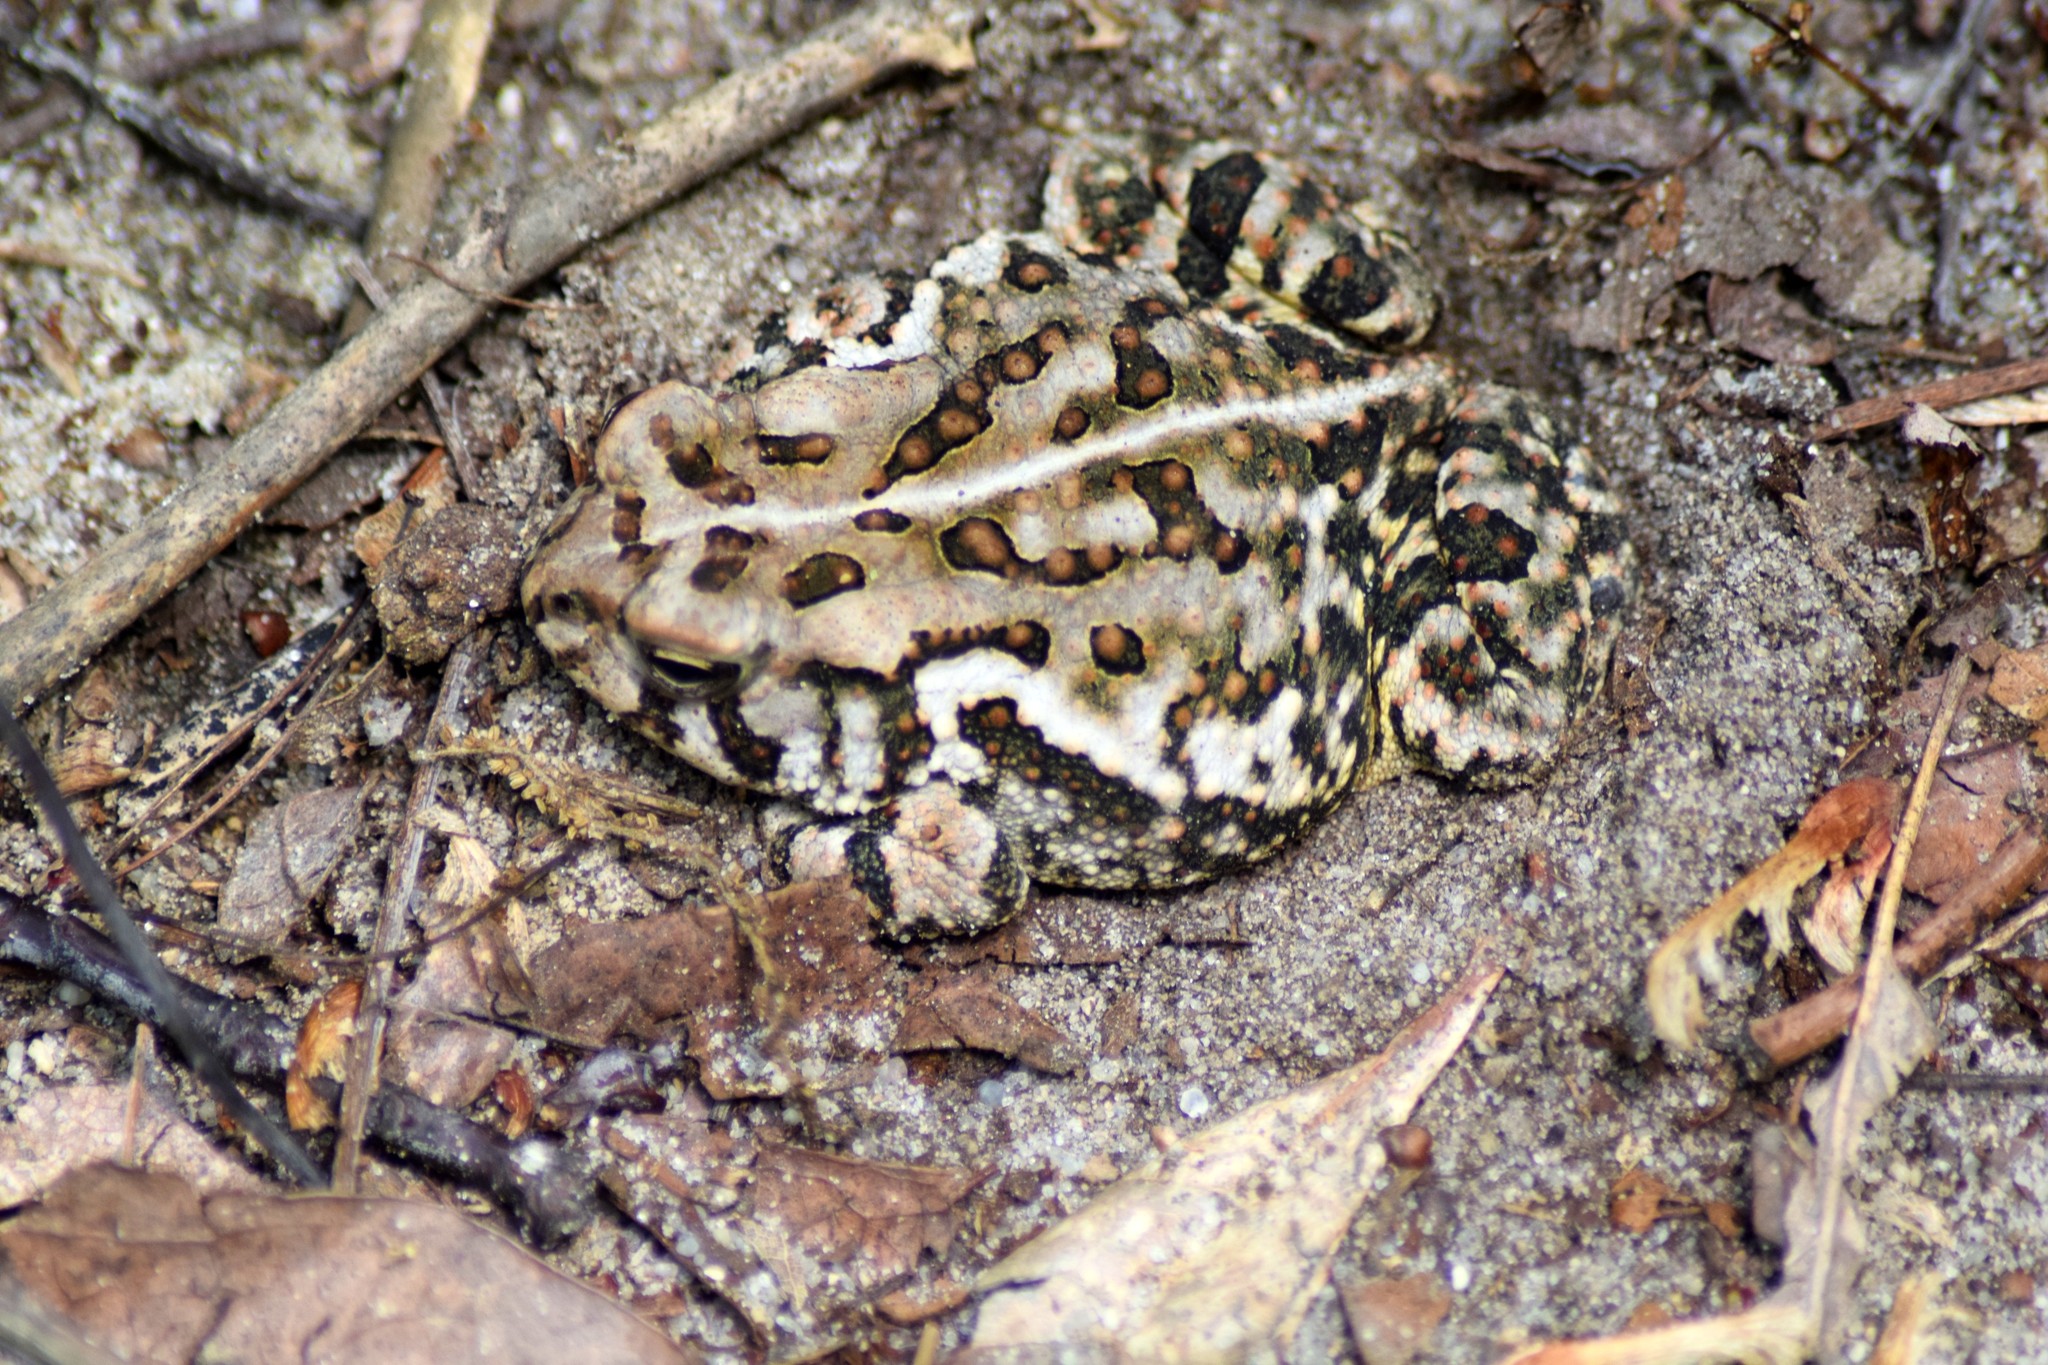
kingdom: Animalia
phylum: Chordata
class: Amphibia
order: Anura
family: Bufonidae
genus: Anaxyrus
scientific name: Anaxyrus fowleri
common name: Fowler's toad
